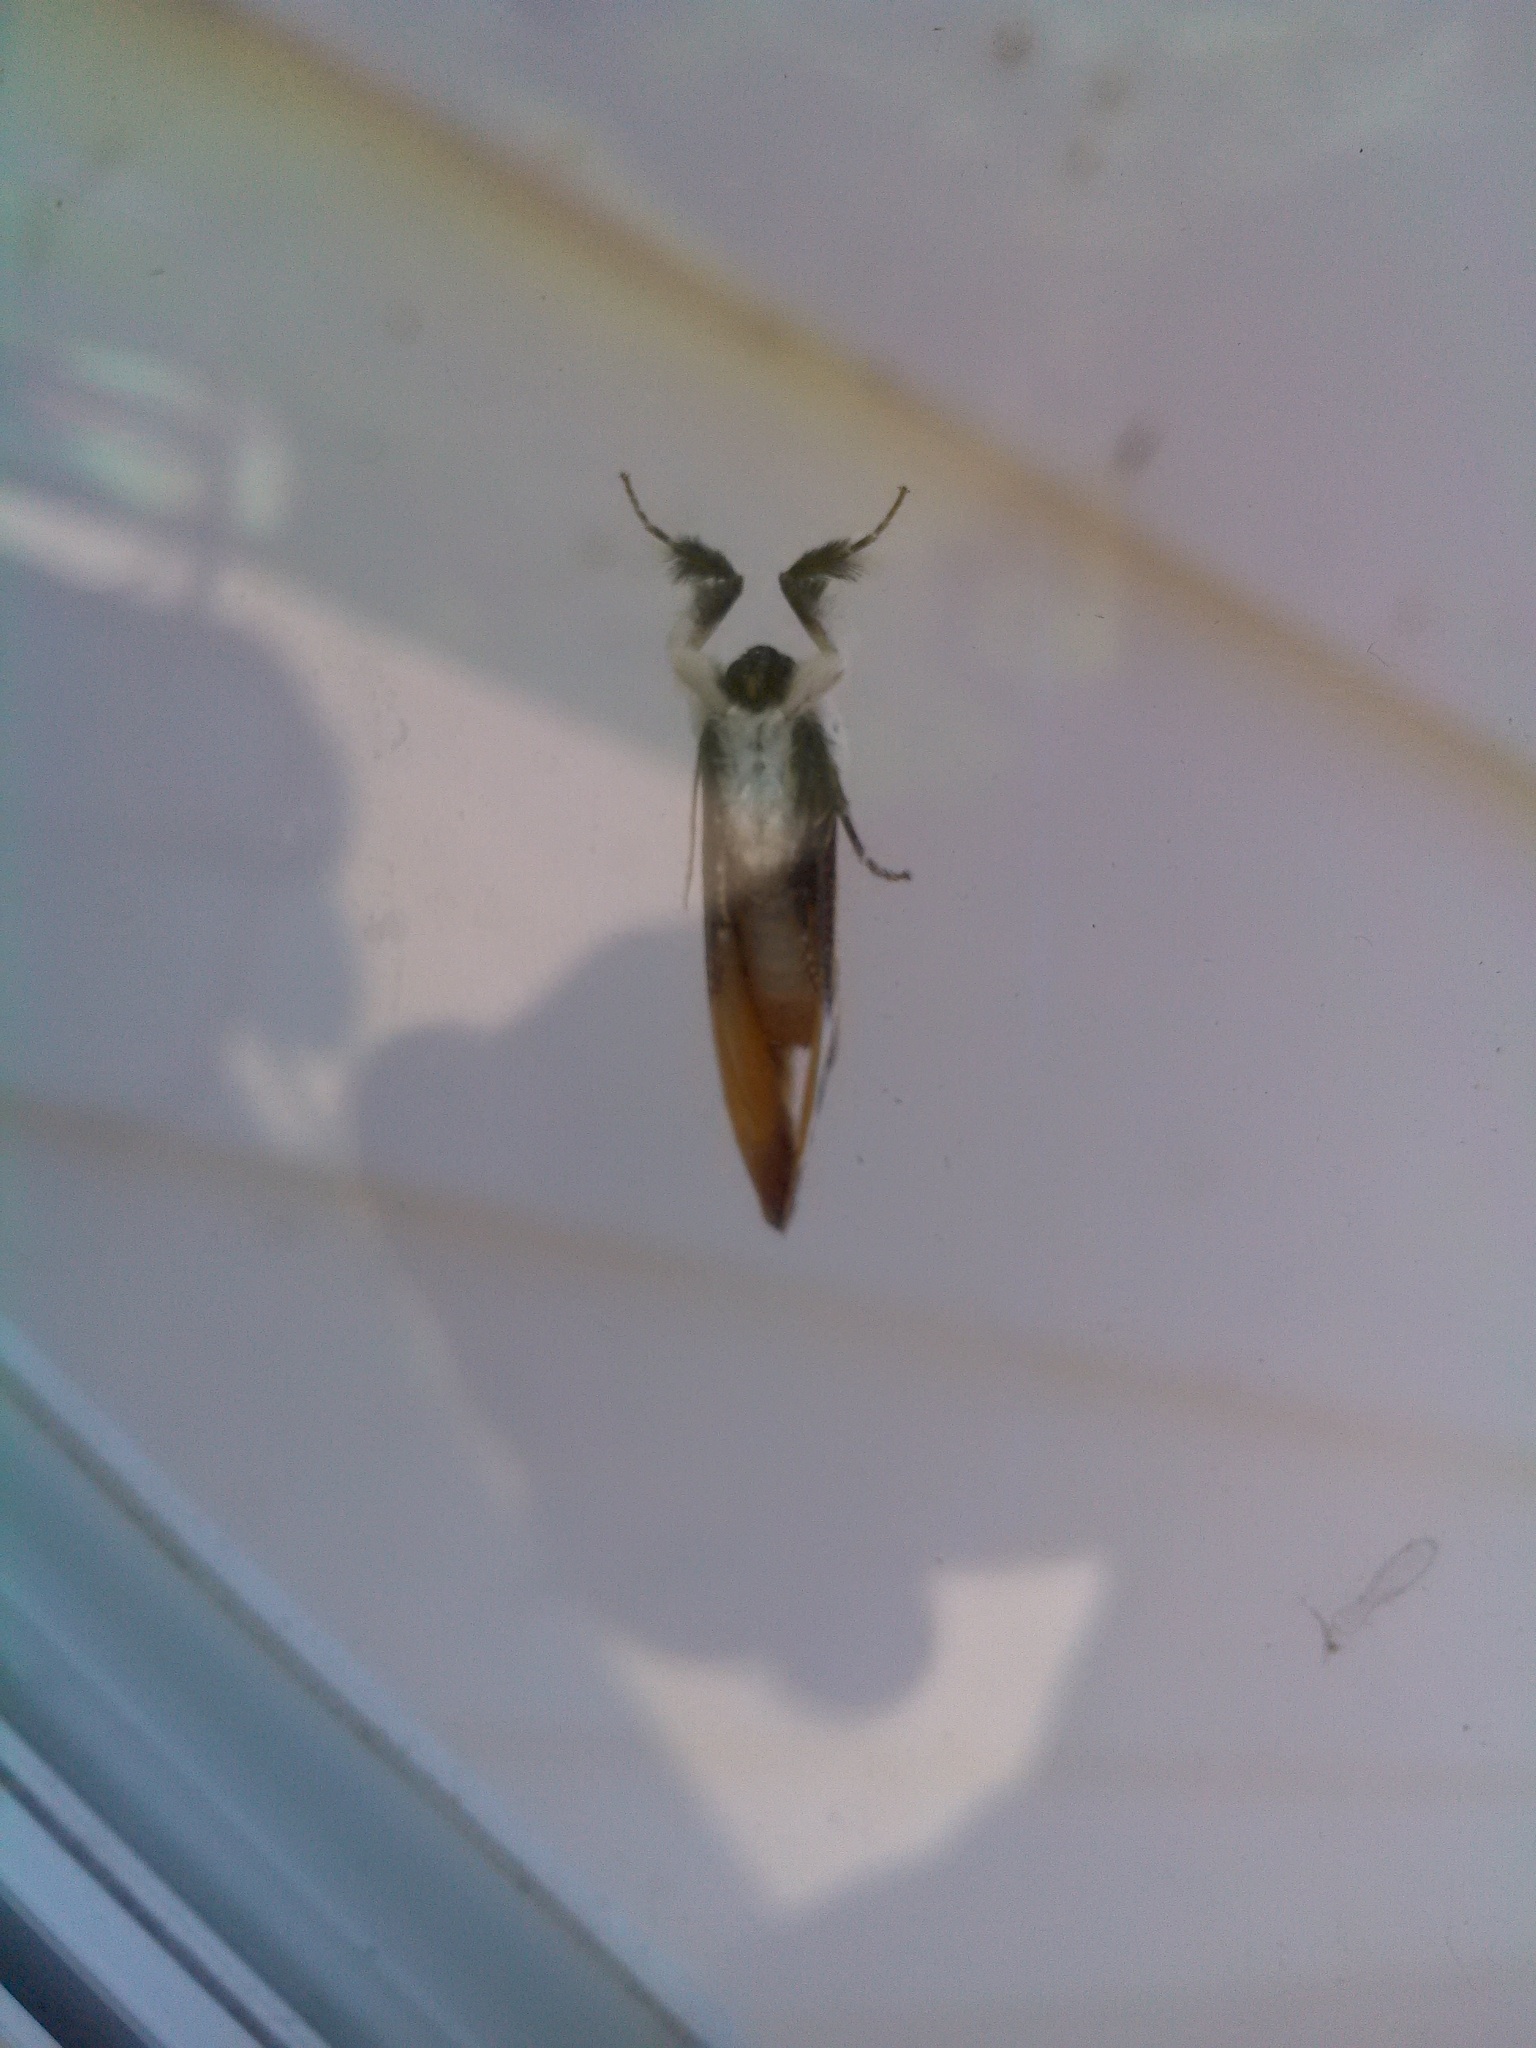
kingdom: Animalia
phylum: Arthropoda
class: Insecta
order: Lepidoptera
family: Noctuidae
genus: Eudryas
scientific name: Eudryas grata
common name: Beautiful wood-nymph
